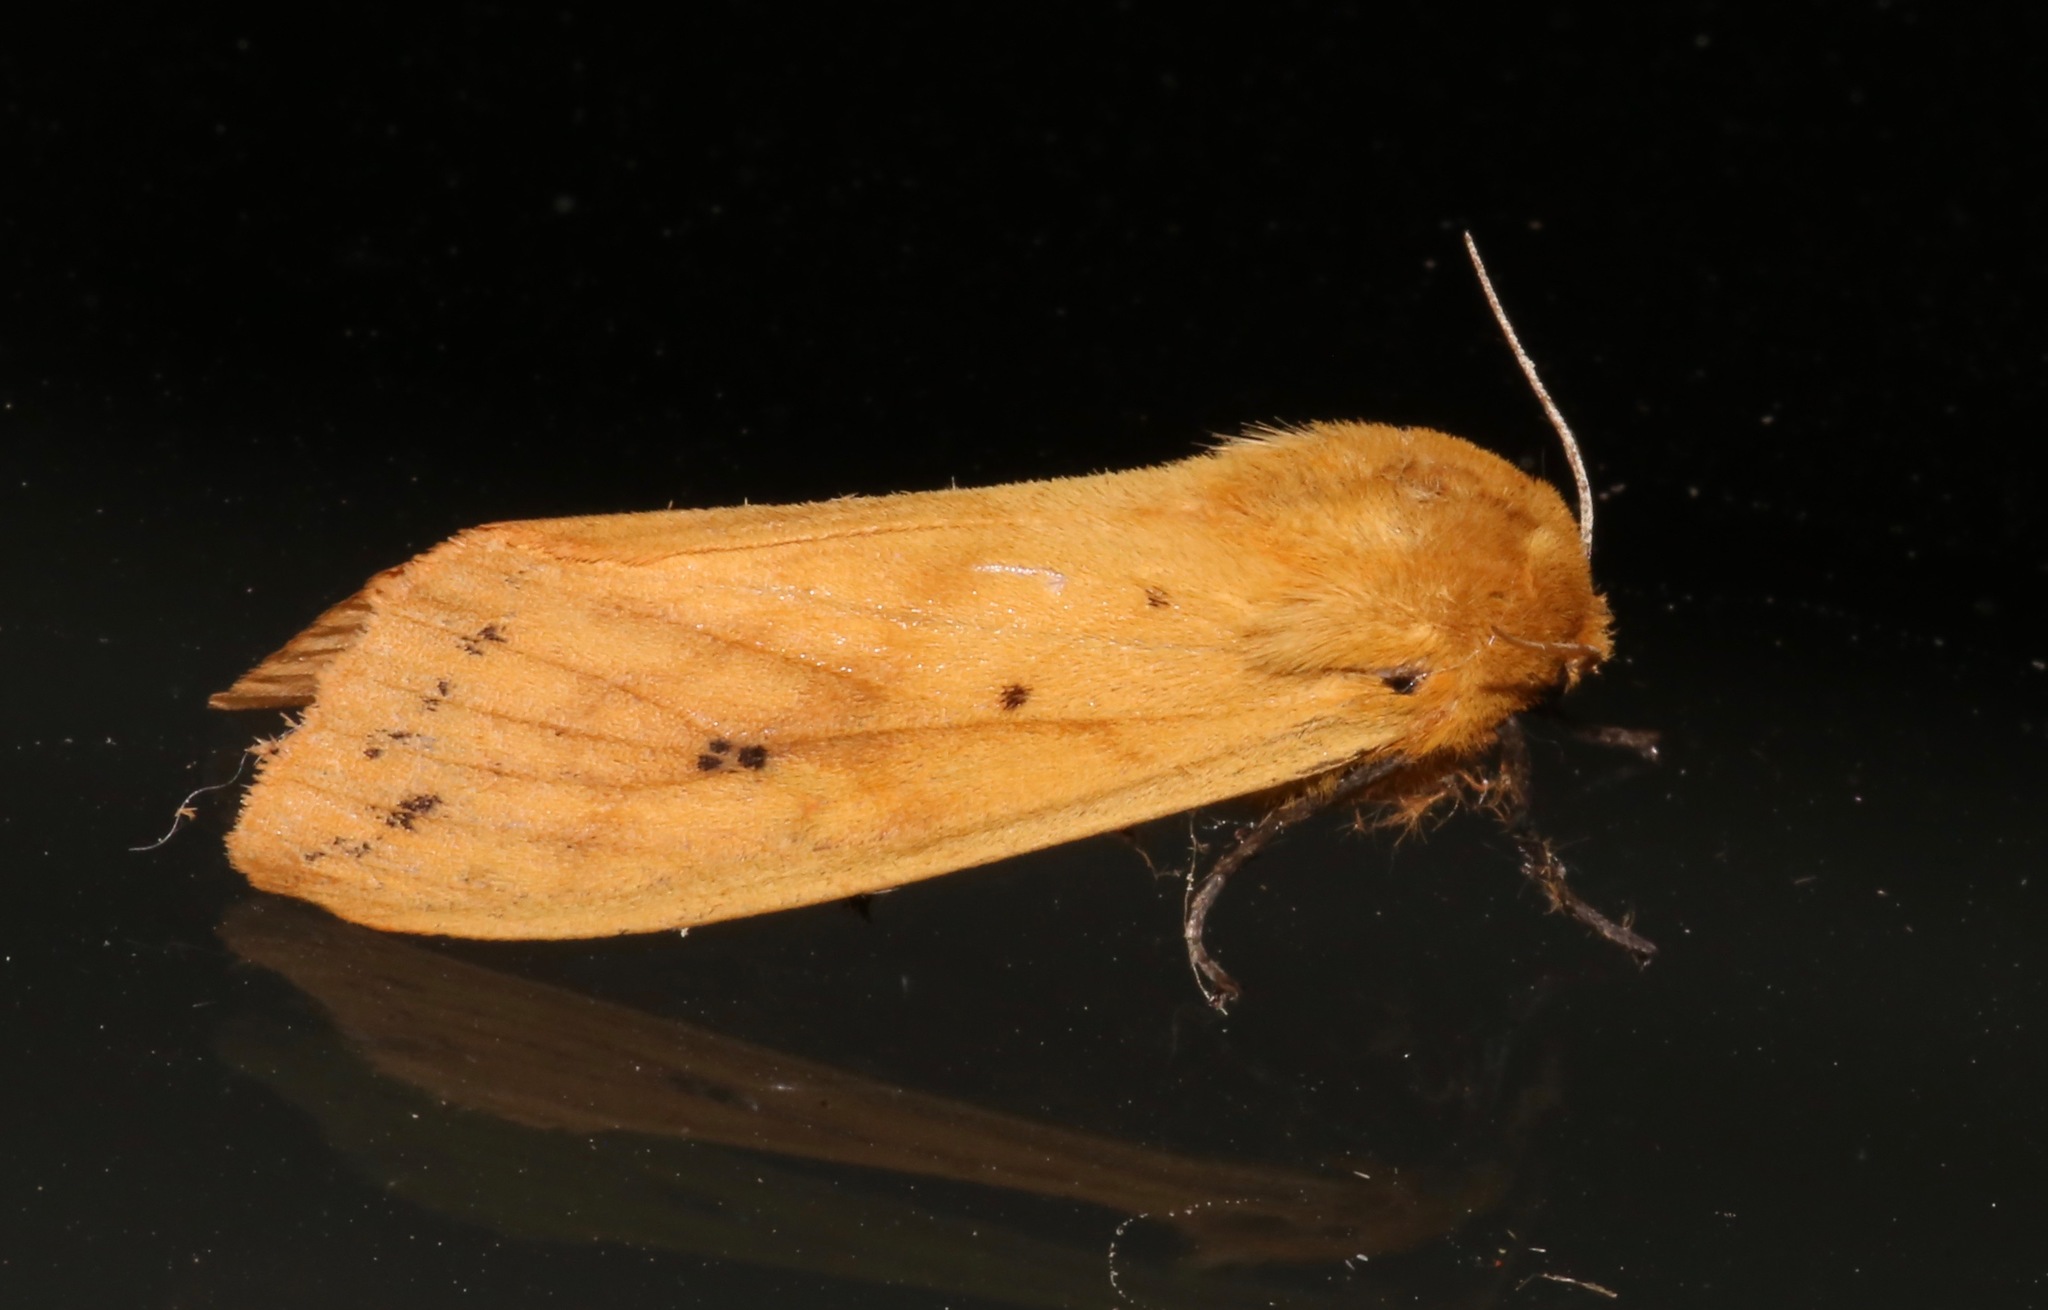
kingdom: Animalia
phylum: Arthropoda
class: Insecta
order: Lepidoptera
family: Erebidae
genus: Pyrrharctia
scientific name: Pyrrharctia isabella
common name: Isabella tiger moth
